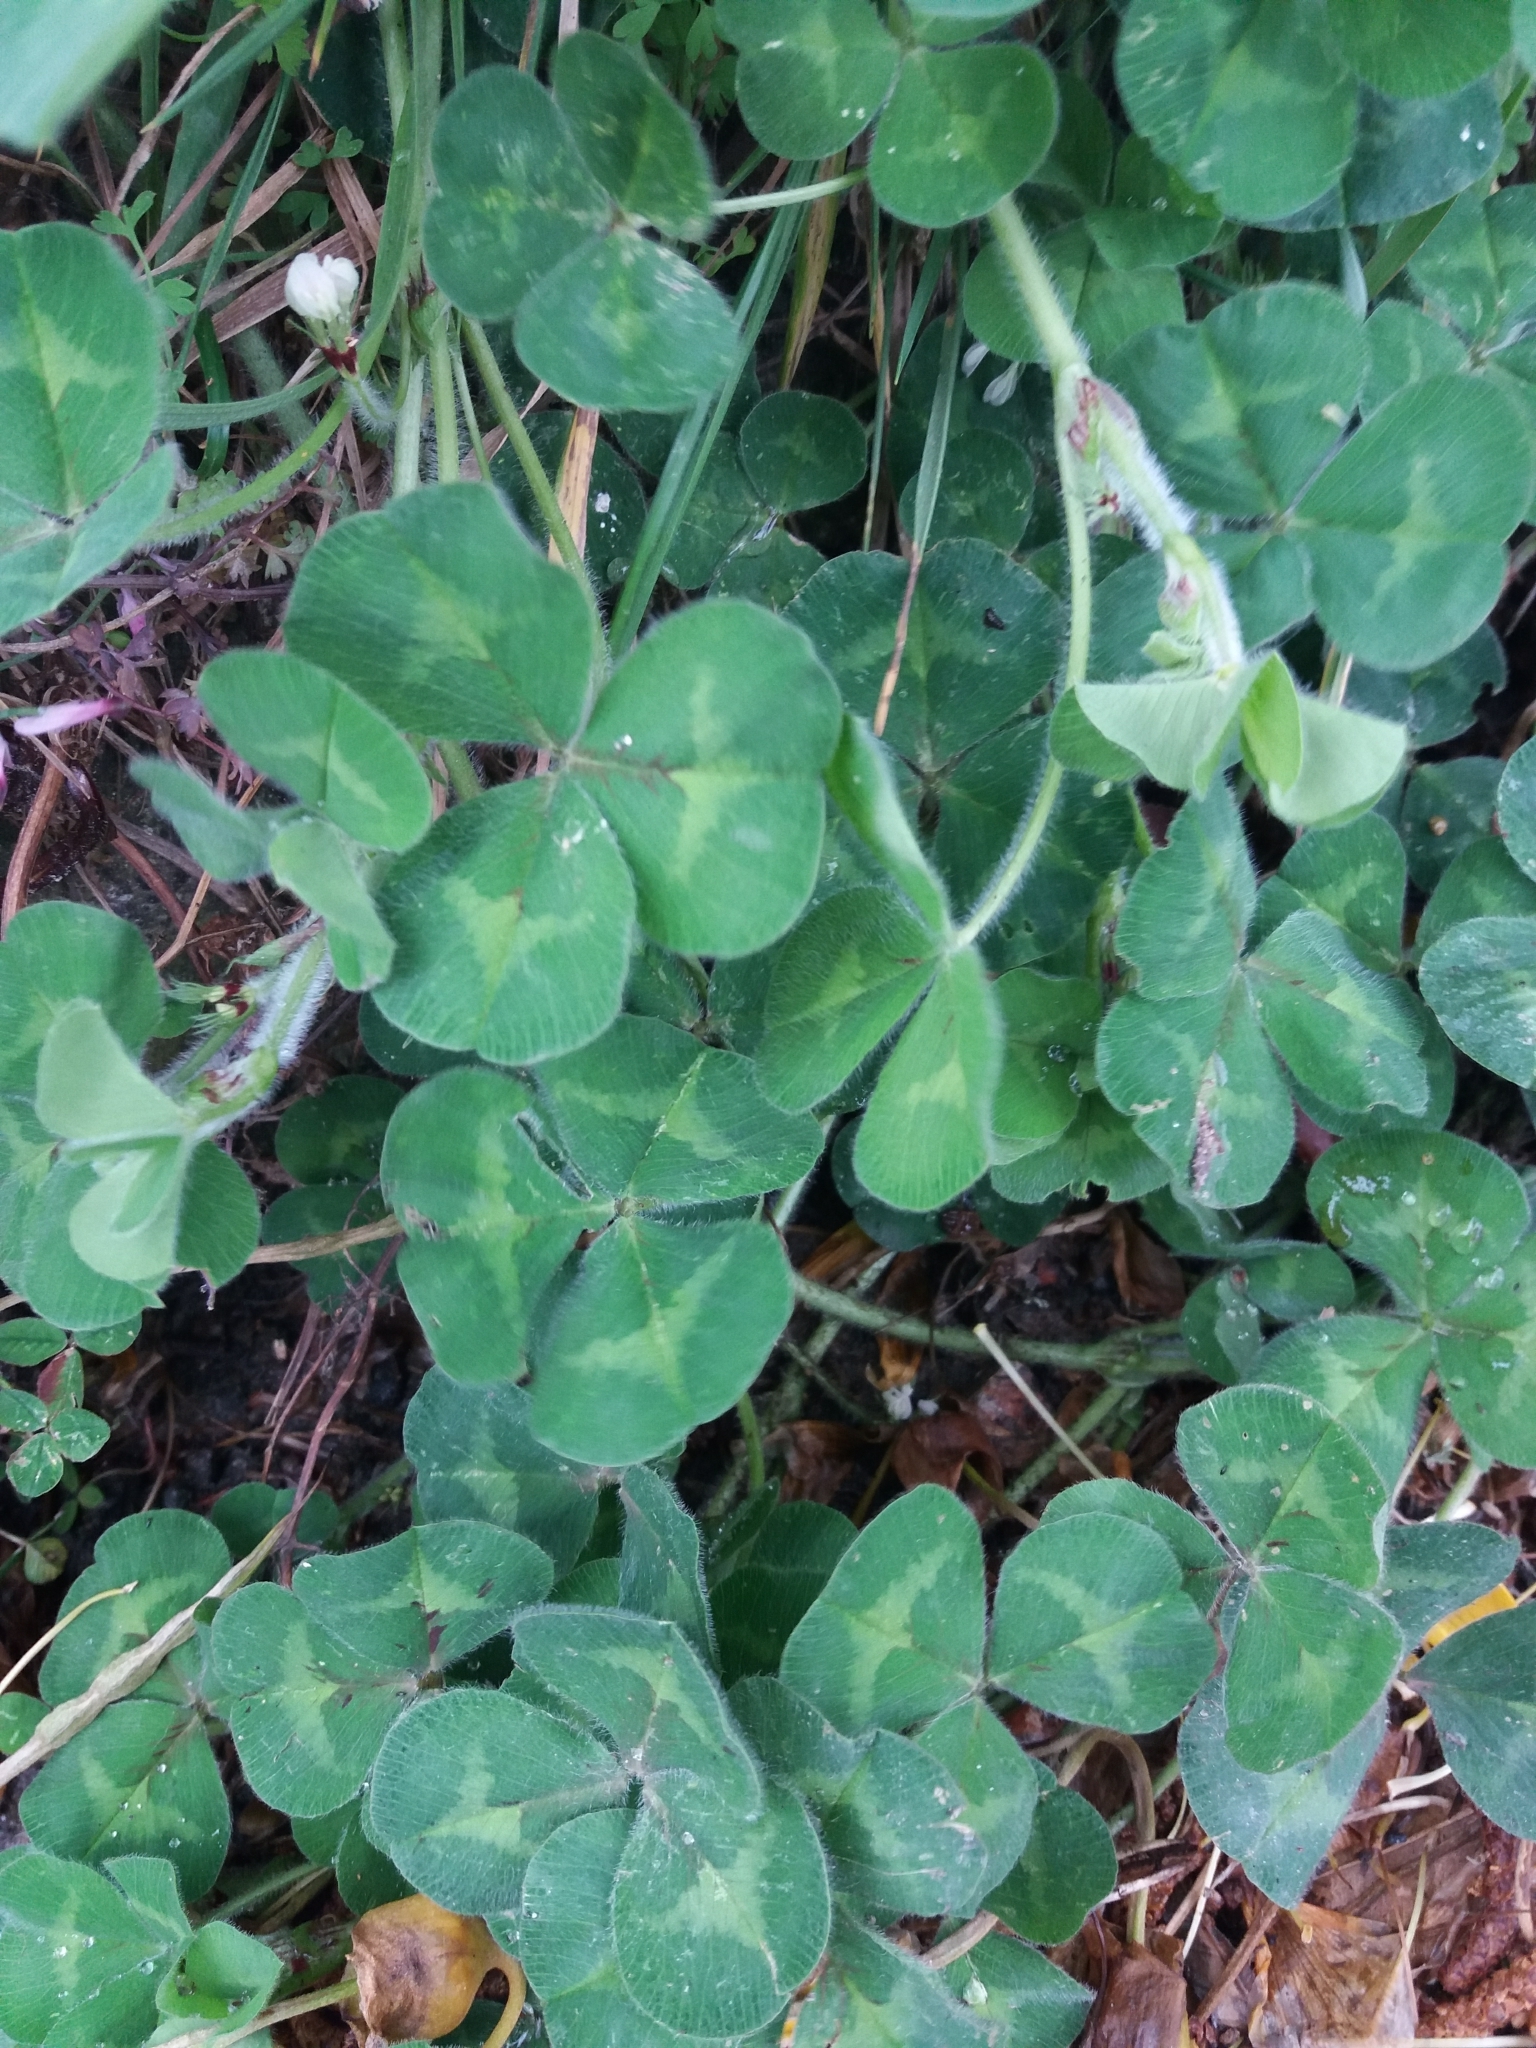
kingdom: Plantae
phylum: Tracheophyta
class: Magnoliopsida
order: Fabales
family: Fabaceae
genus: Trifolium
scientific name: Trifolium subterraneum
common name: Subterranean clover
